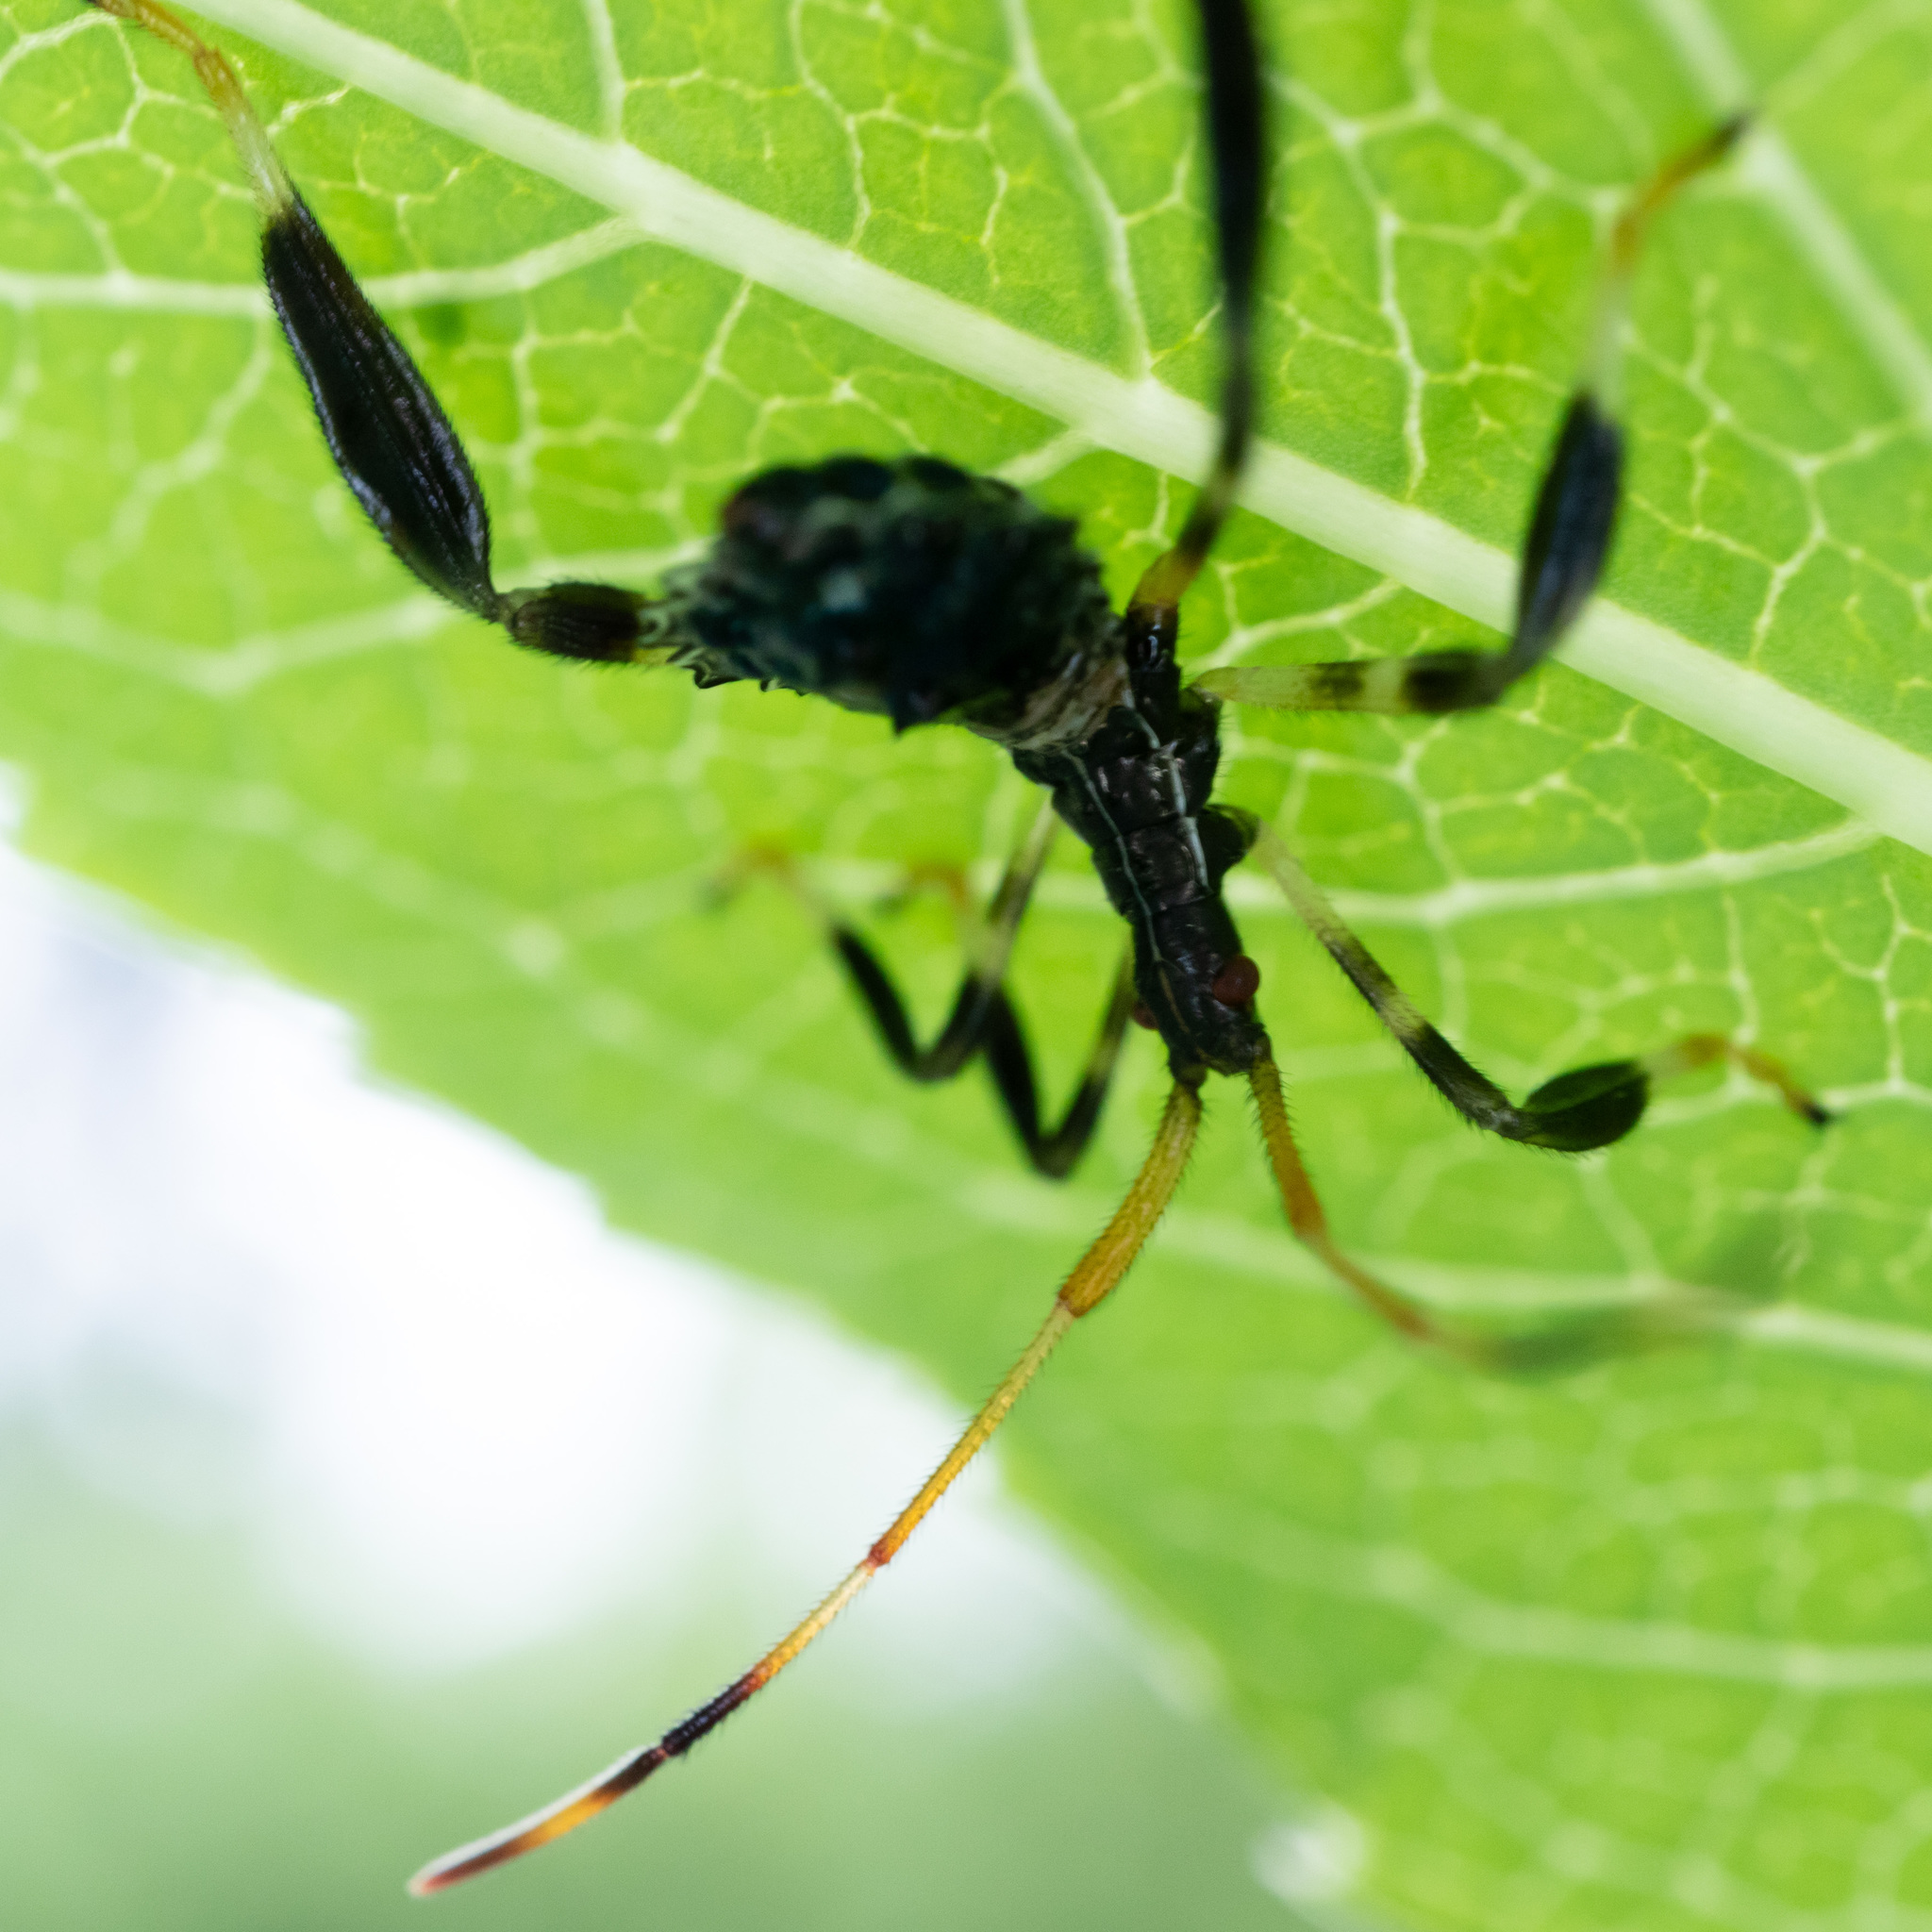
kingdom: Animalia
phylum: Arthropoda
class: Insecta
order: Hemiptera
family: Coreidae
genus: Acanthocephala
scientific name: Acanthocephala terminalis
